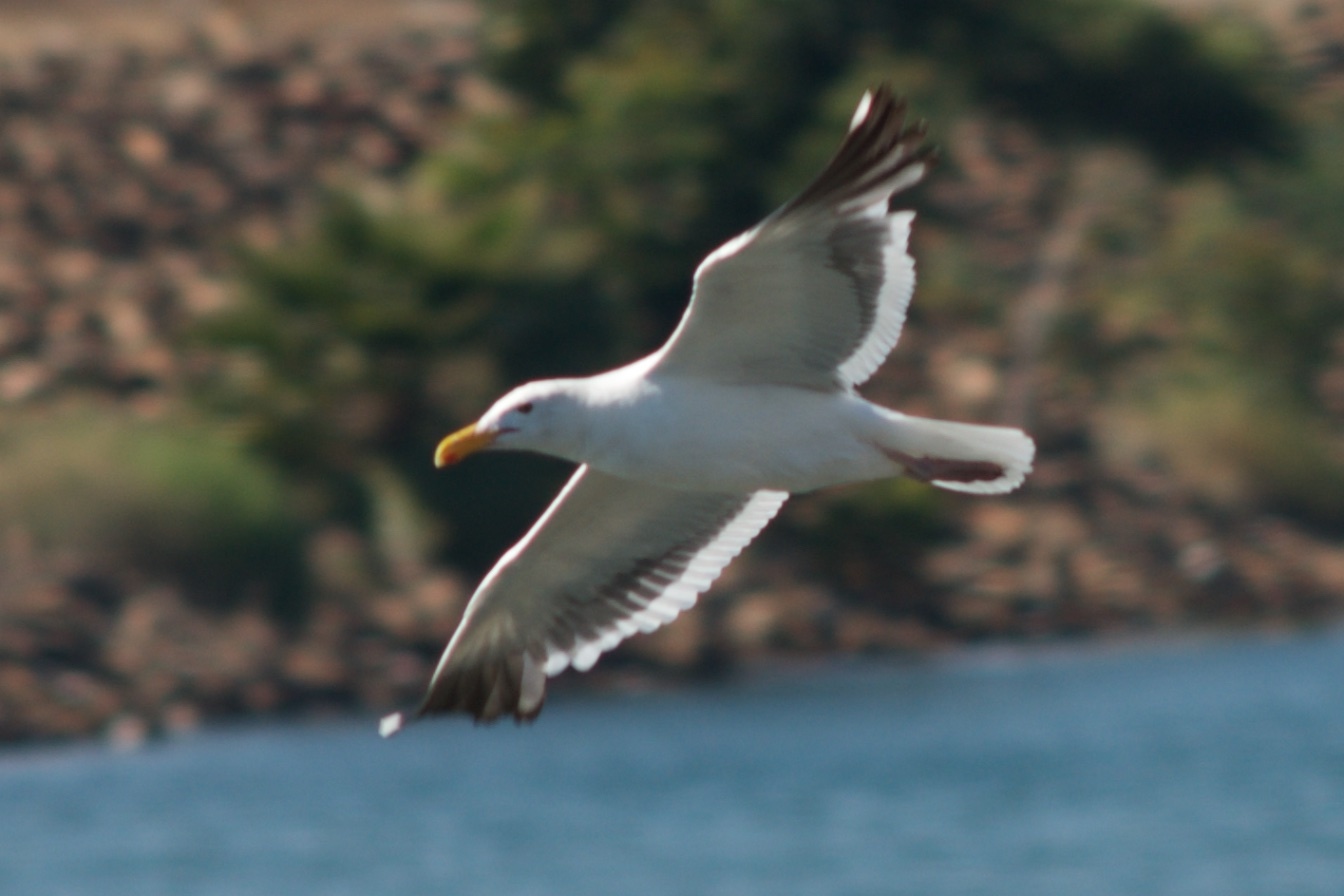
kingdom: Animalia
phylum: Chordata
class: Aves
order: Charadriiformes
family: Laridae
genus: Larus
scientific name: Larus occidentalis
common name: Western gull
